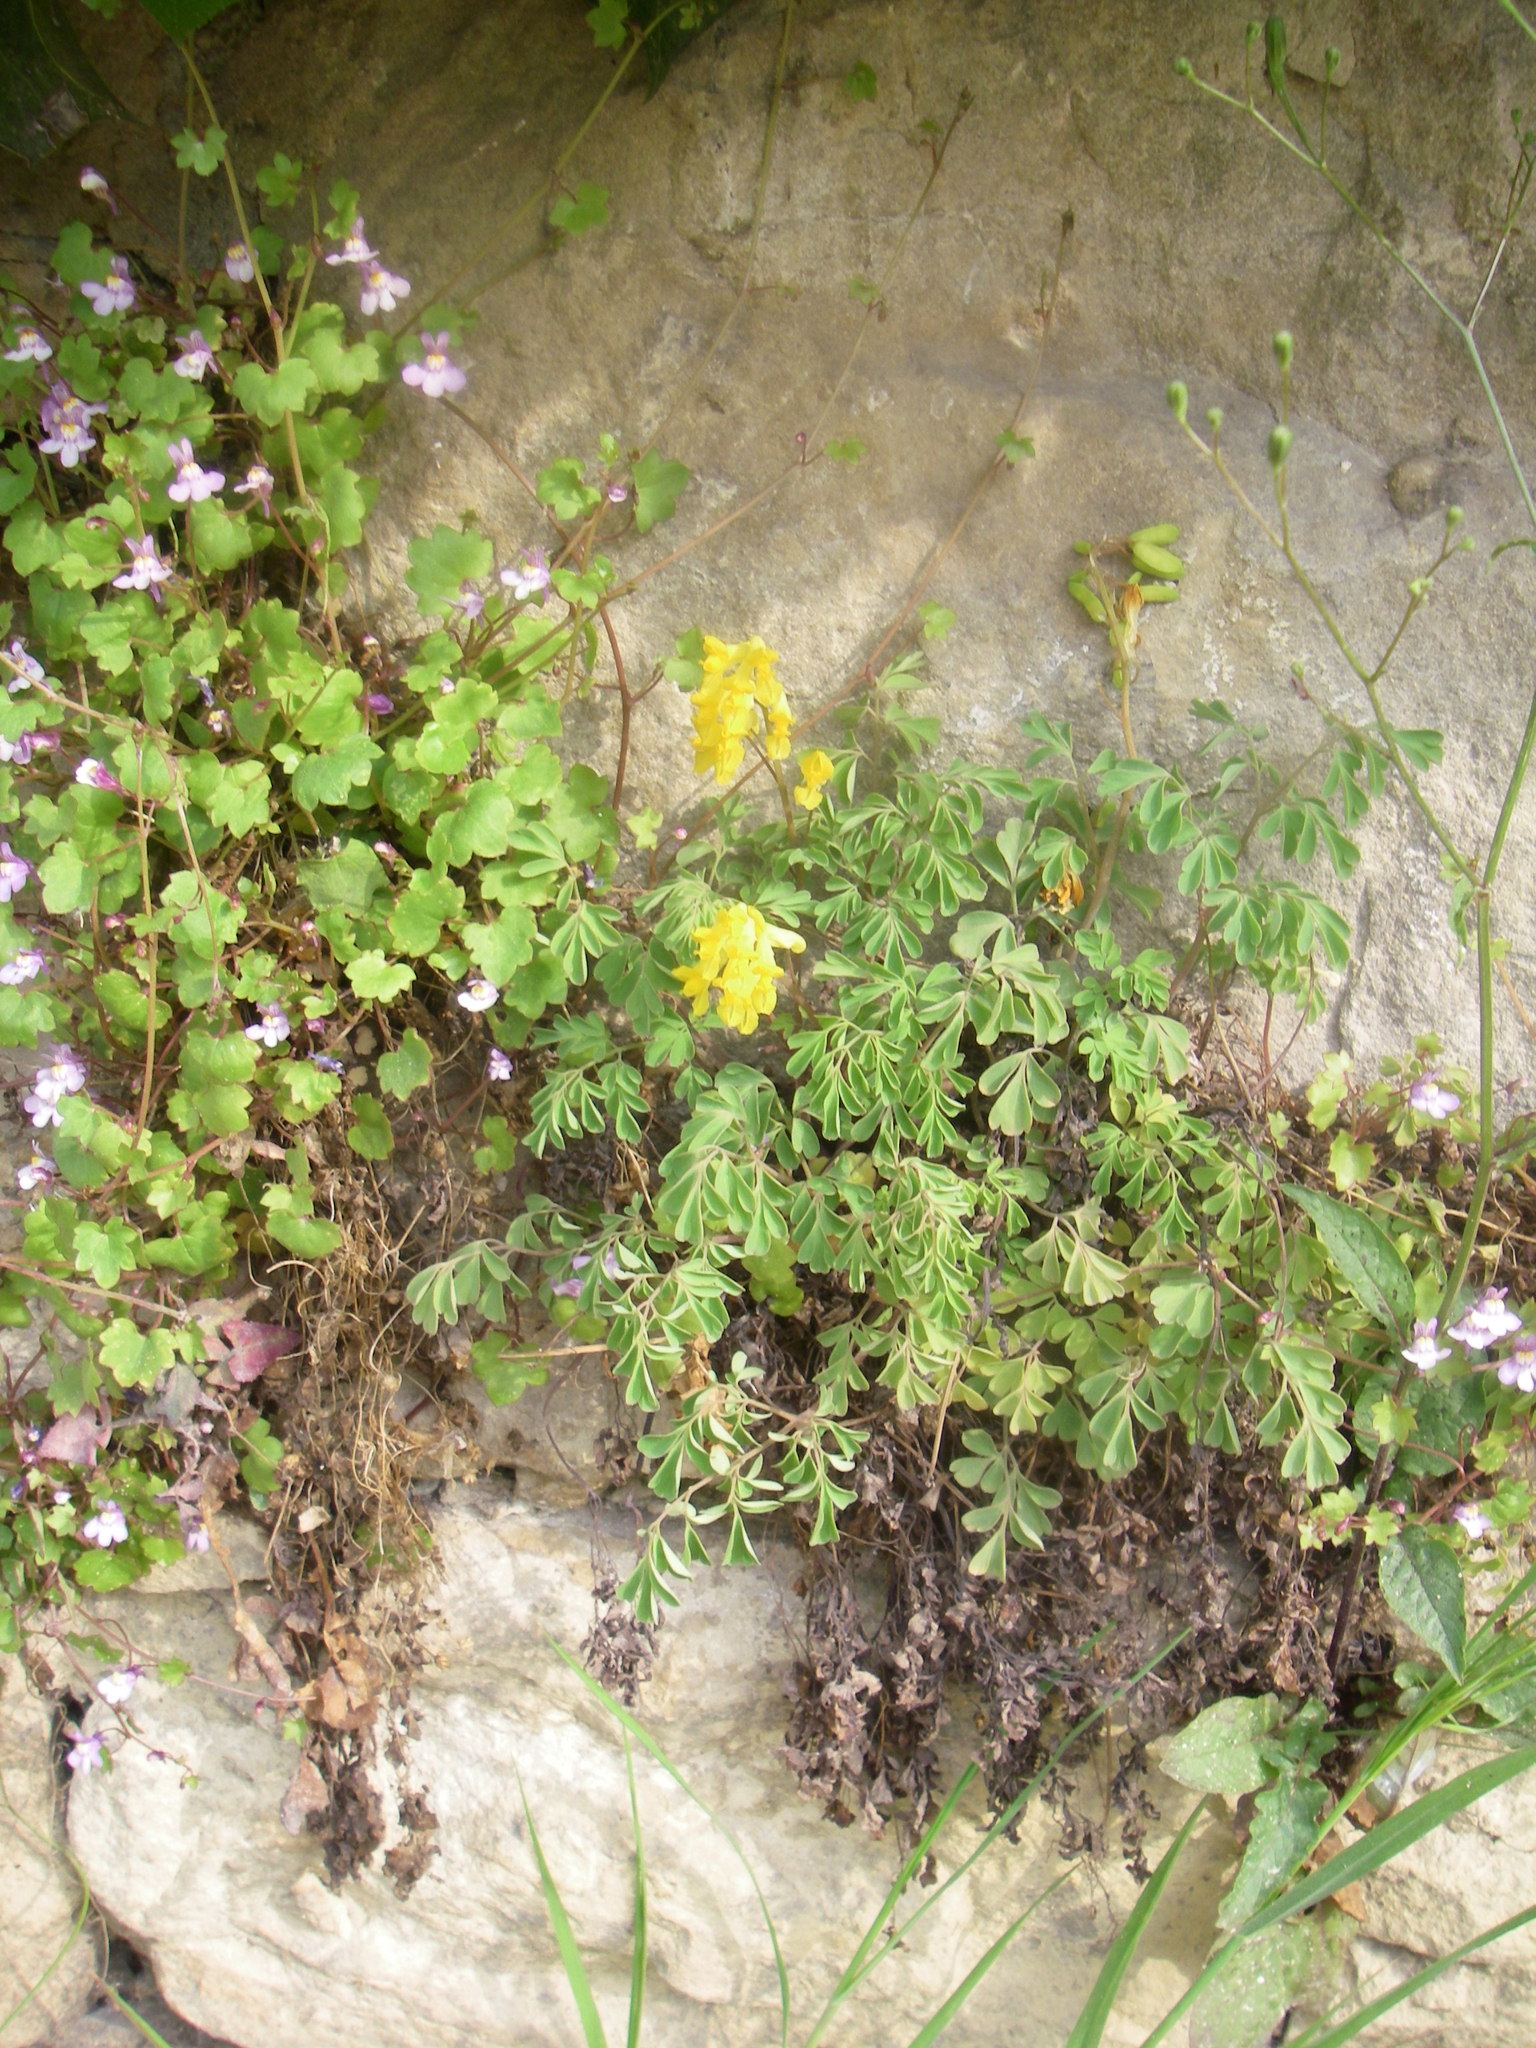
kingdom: Plantae
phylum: Tracheophyta
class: Magnoliopsida
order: Ranunculales
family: Papaveraceae
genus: Pseudofumaria
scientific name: Pseudofumaria lutea
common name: Yellow corydalis
